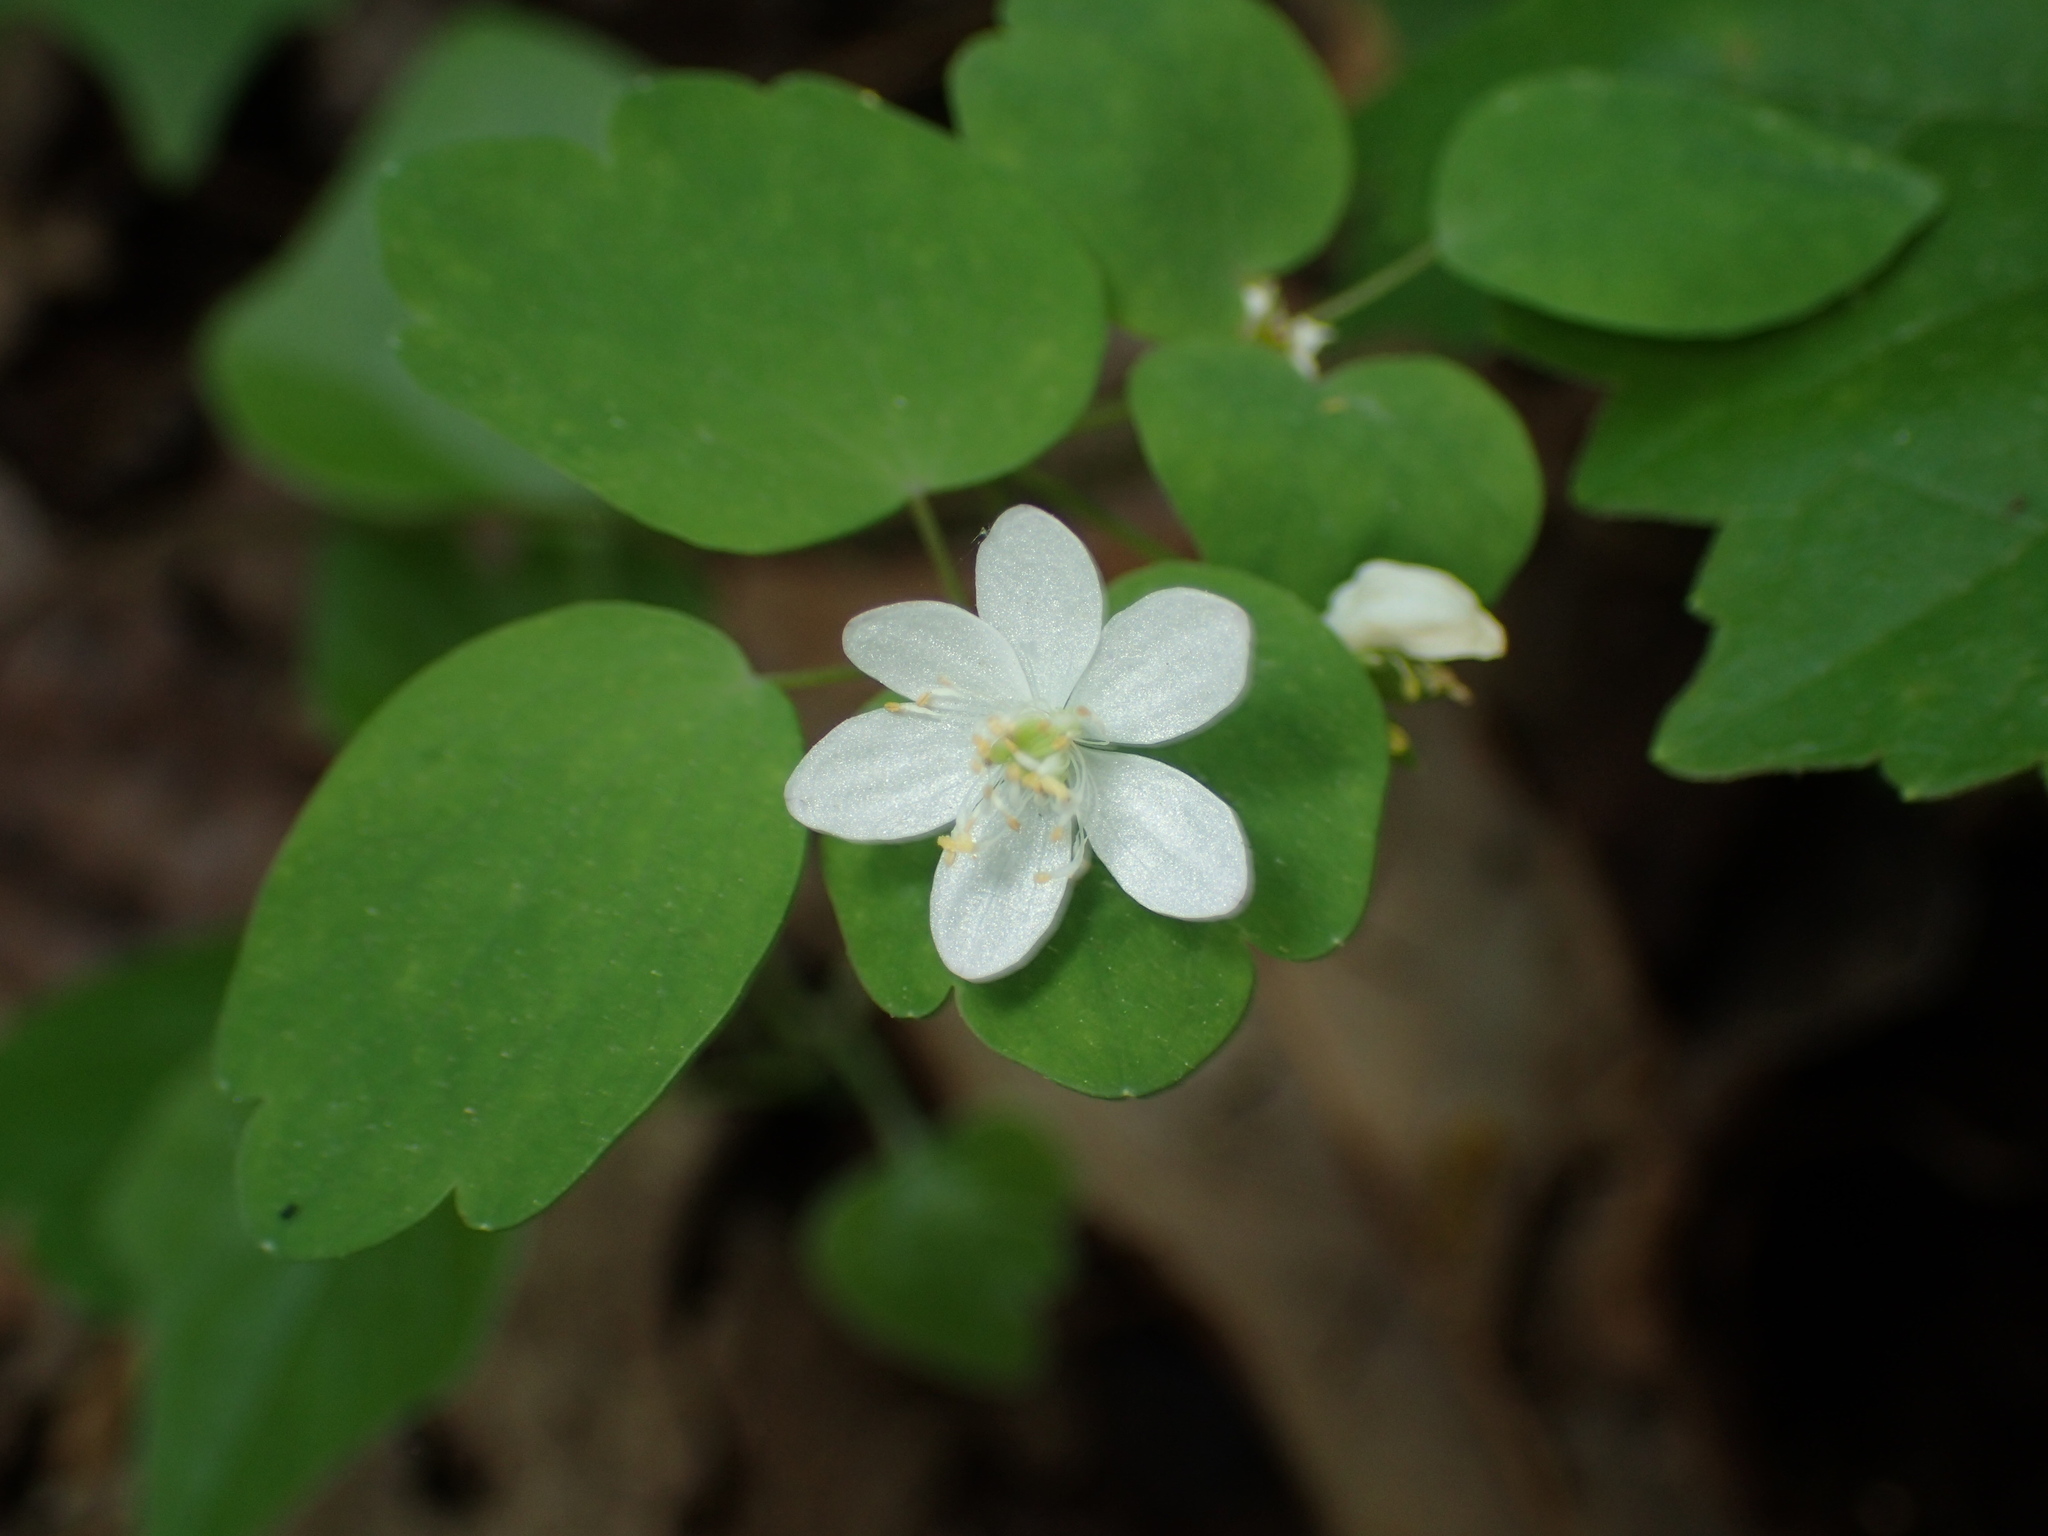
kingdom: Plantae
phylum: Tracheophyta
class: Magnoliopsida
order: Ranunculales
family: Ranunculaceae
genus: Thalictrum
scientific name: Thalictrum thalictroides
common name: Rue-anemone
